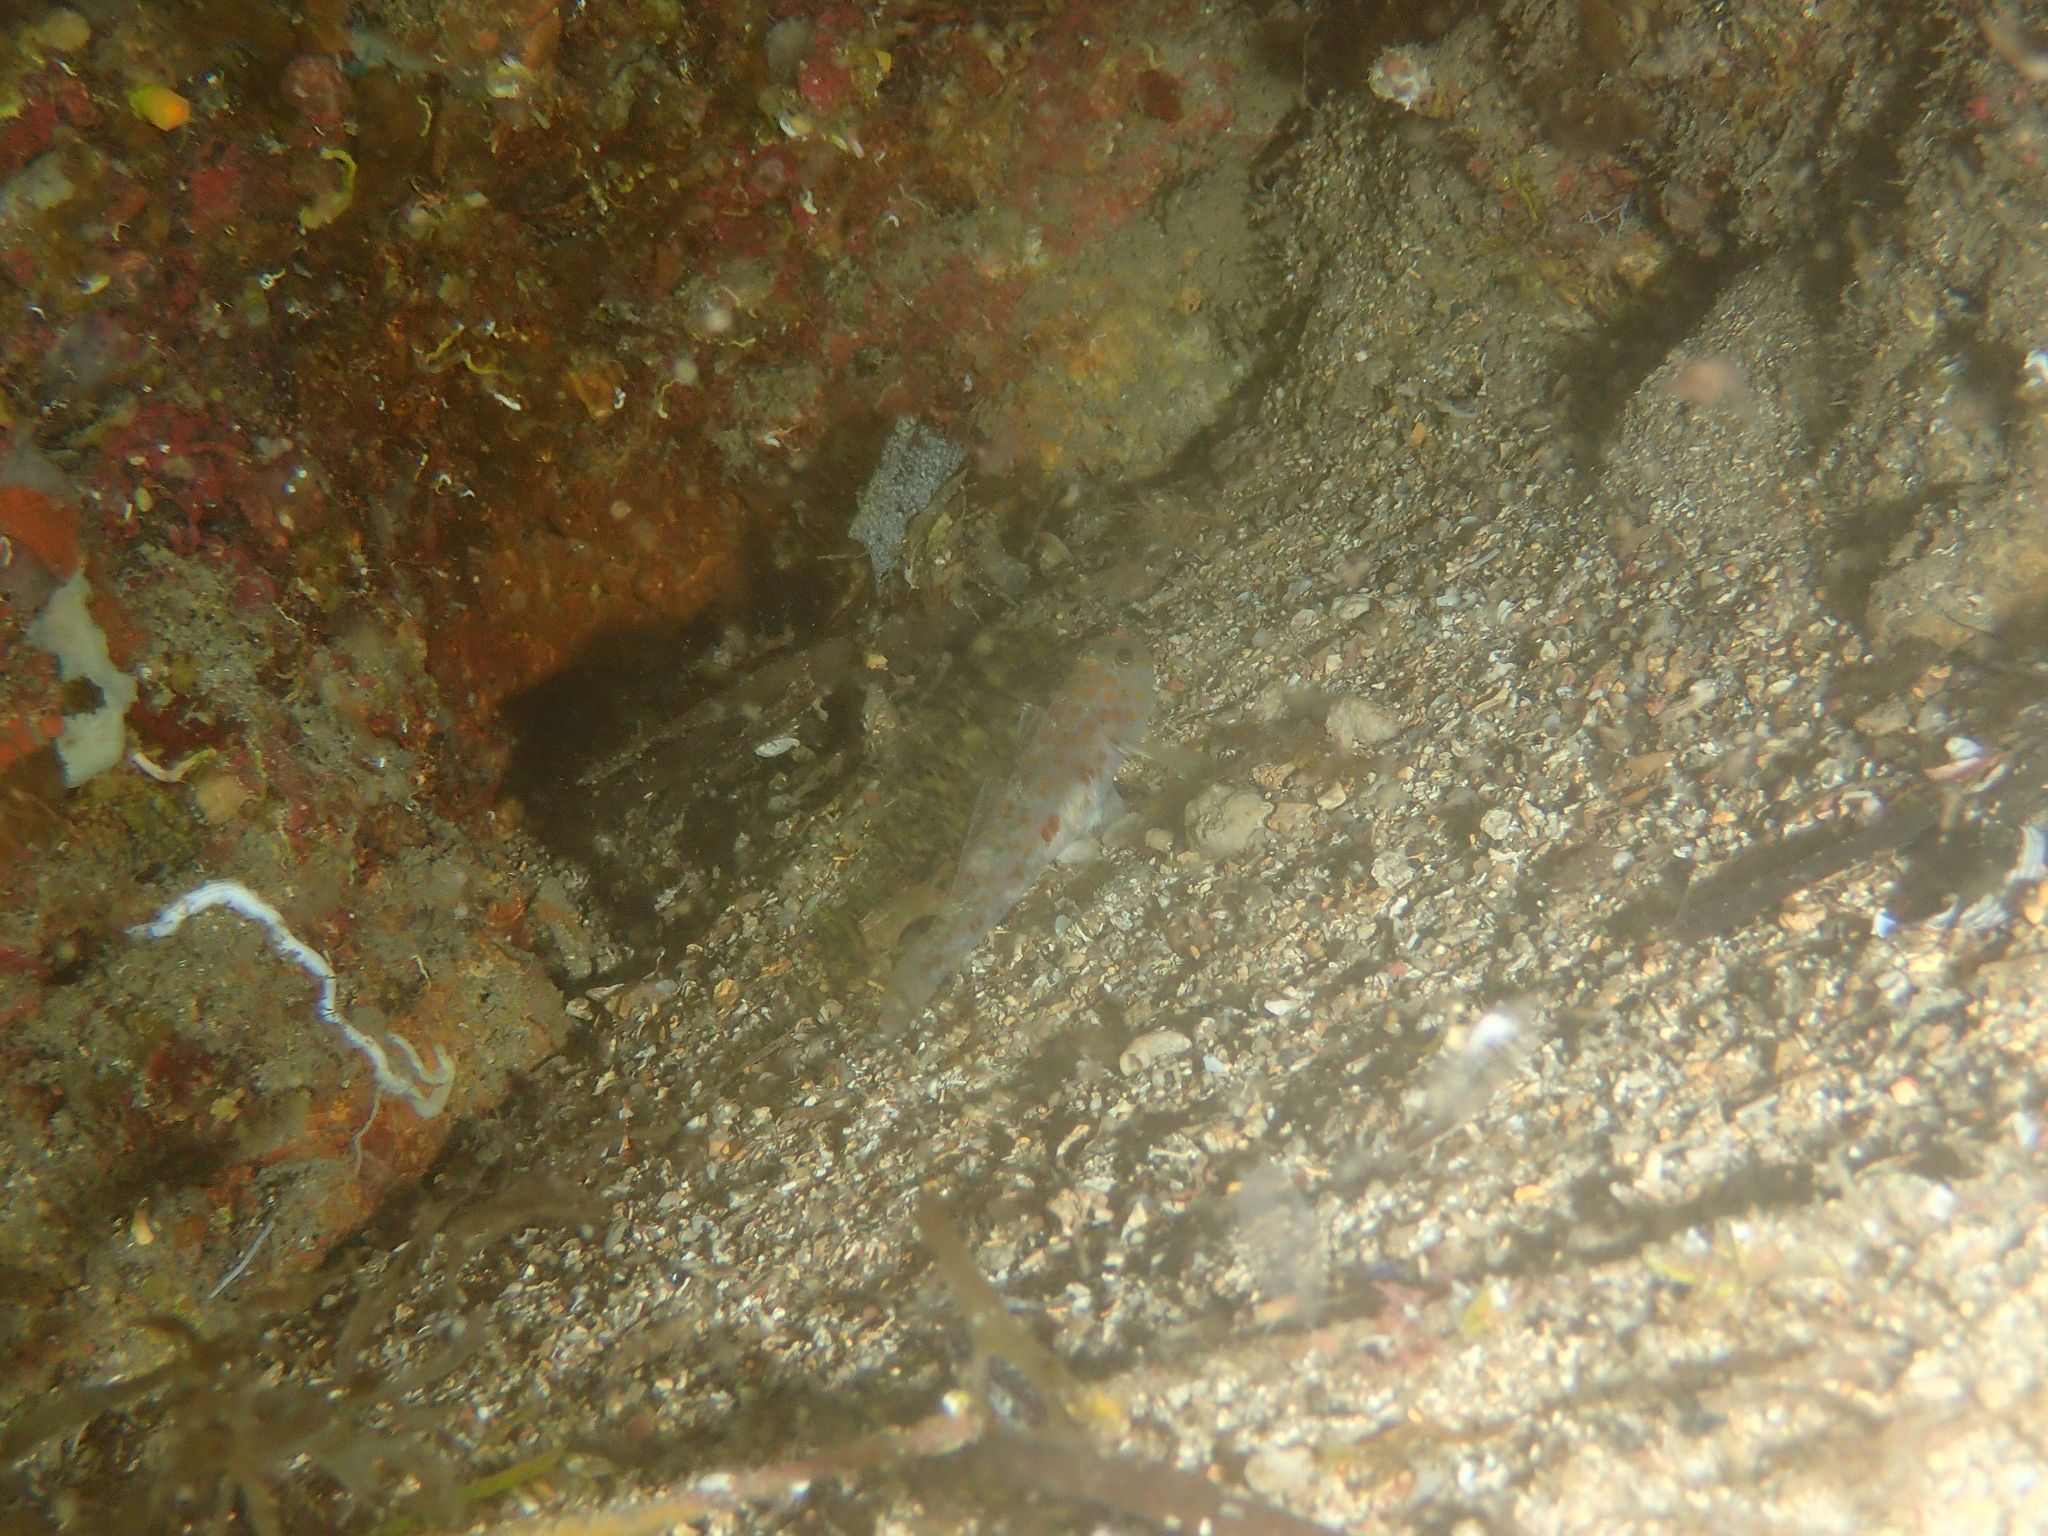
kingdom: Animalia
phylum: Chordata
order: Perciformes
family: Gobiidae
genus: Thorogobius
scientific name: Thorogobius macrolepis
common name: Large-scaled goby
